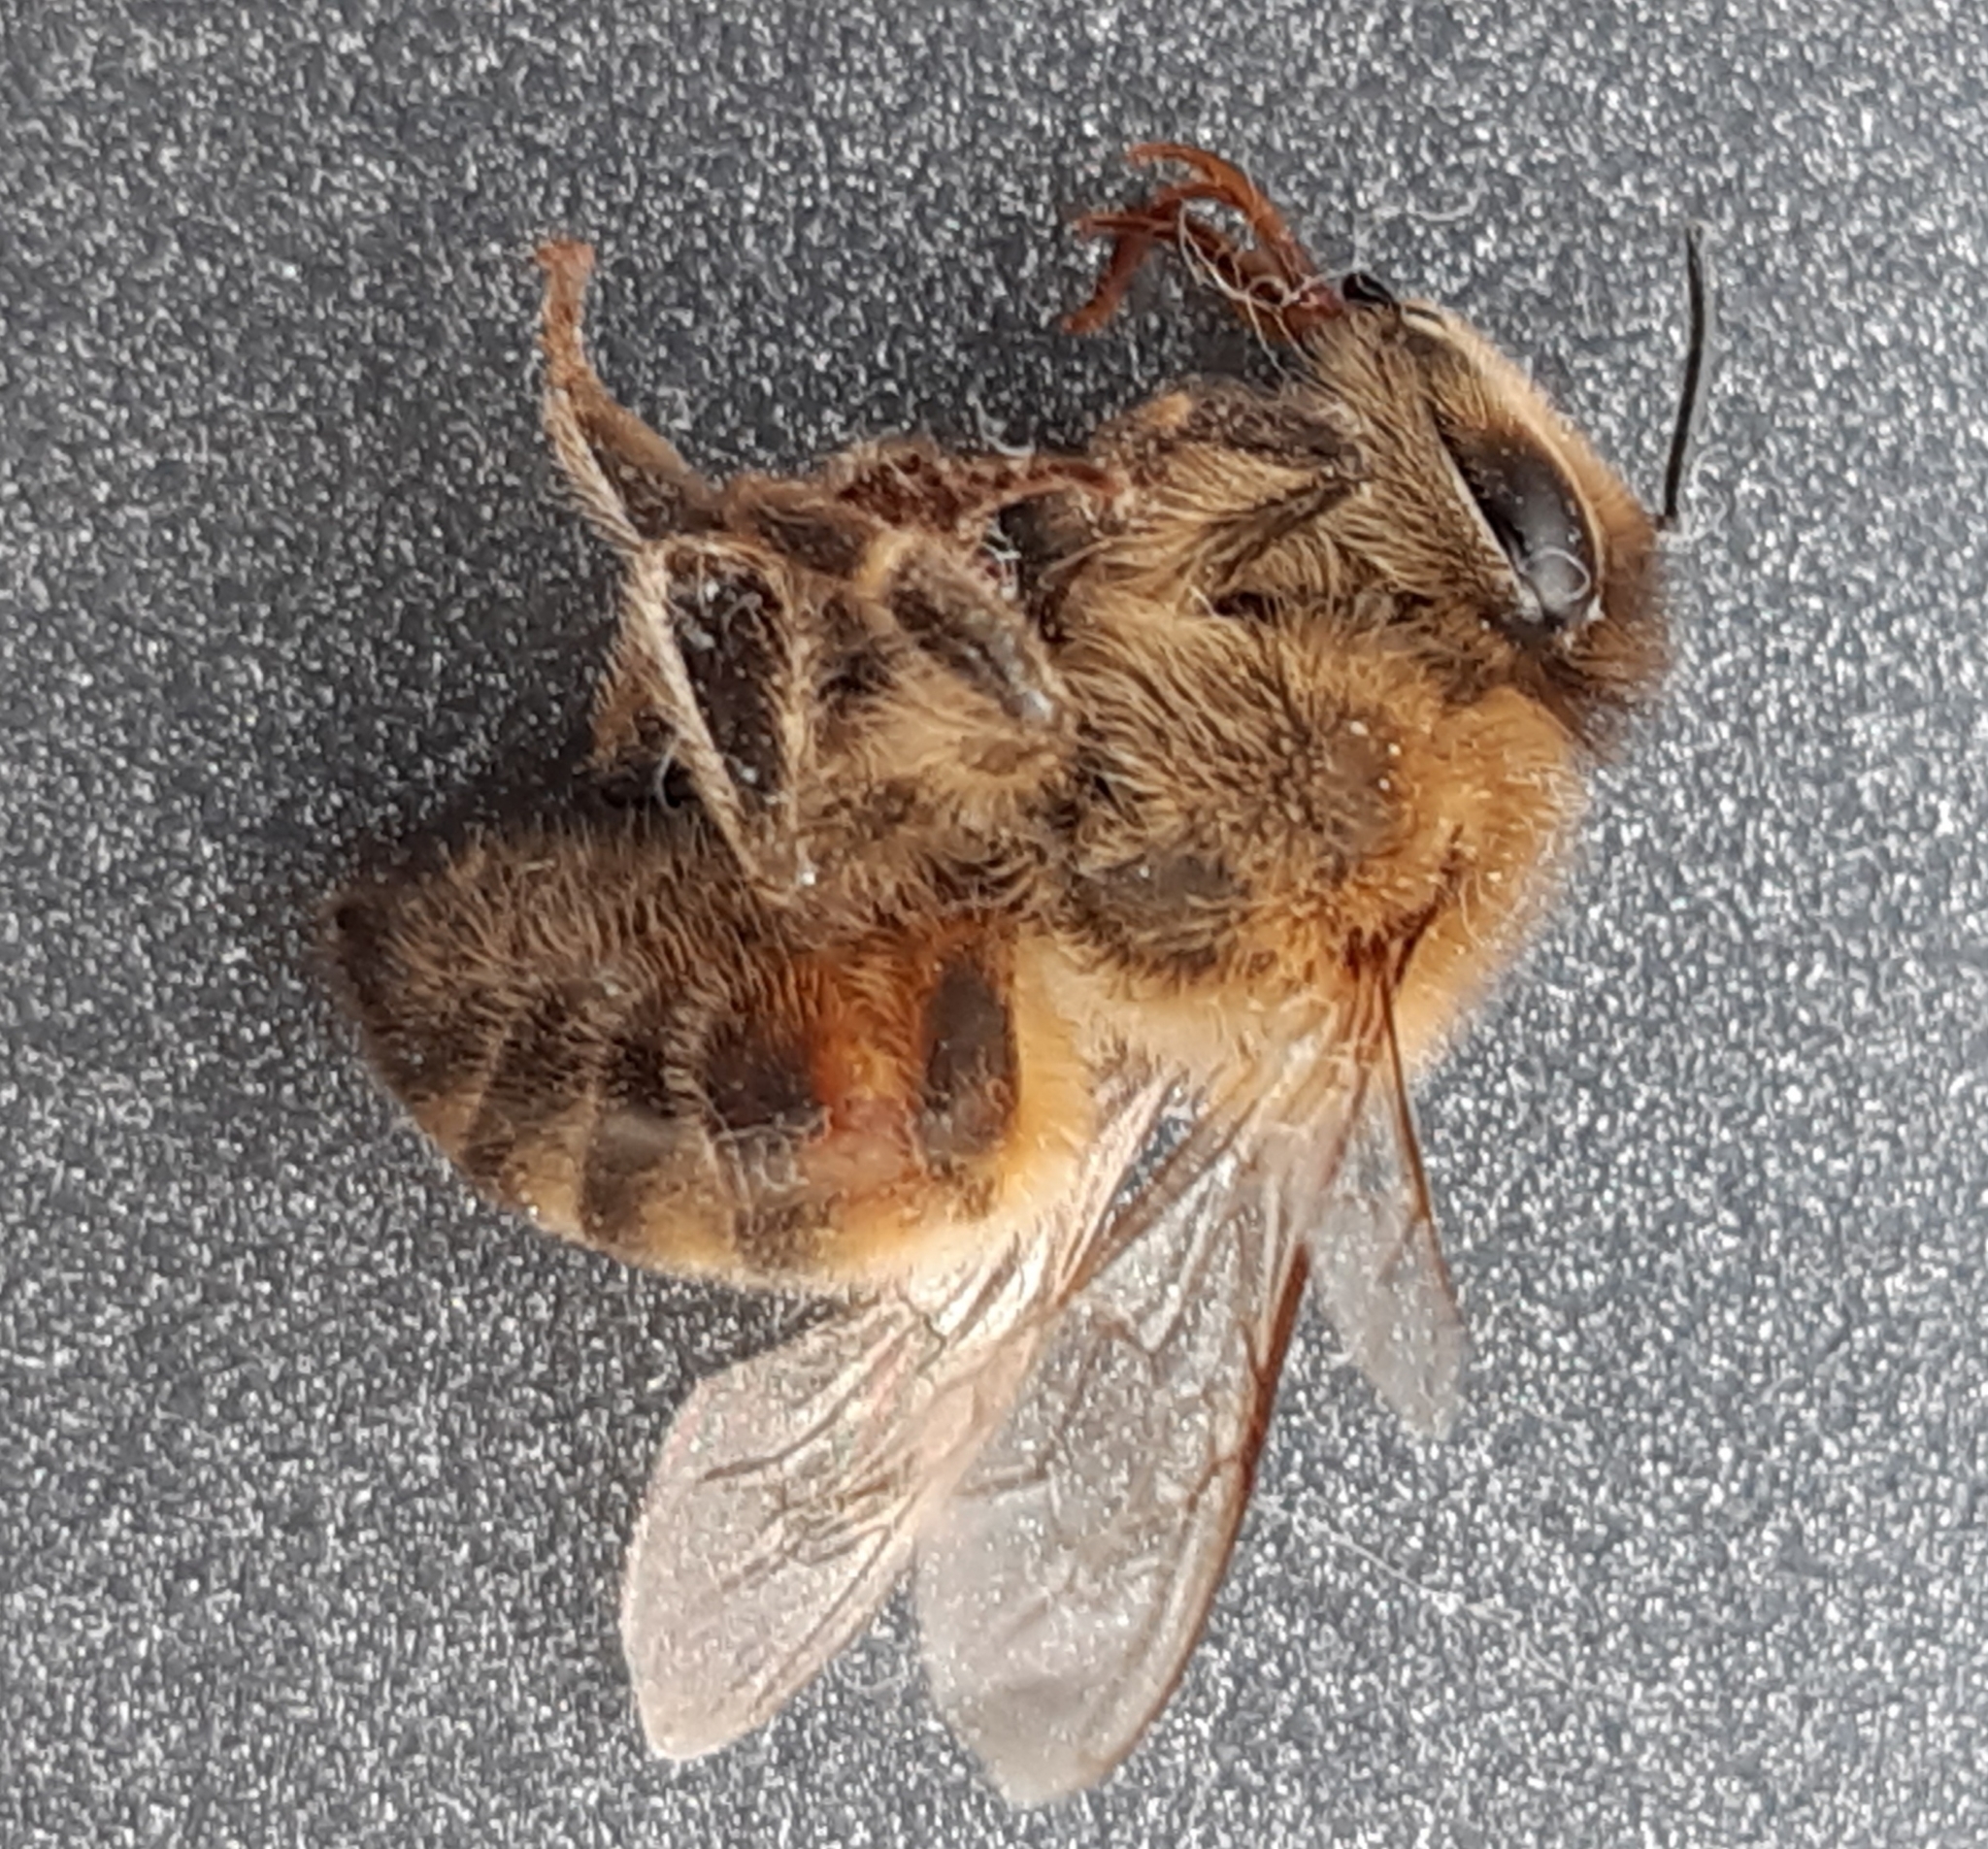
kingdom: Animalia
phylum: Arthropoda
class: Insecta
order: Hymenoptera
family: Apidae
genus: Apis
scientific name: Apis mellifera
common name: Honey bee
